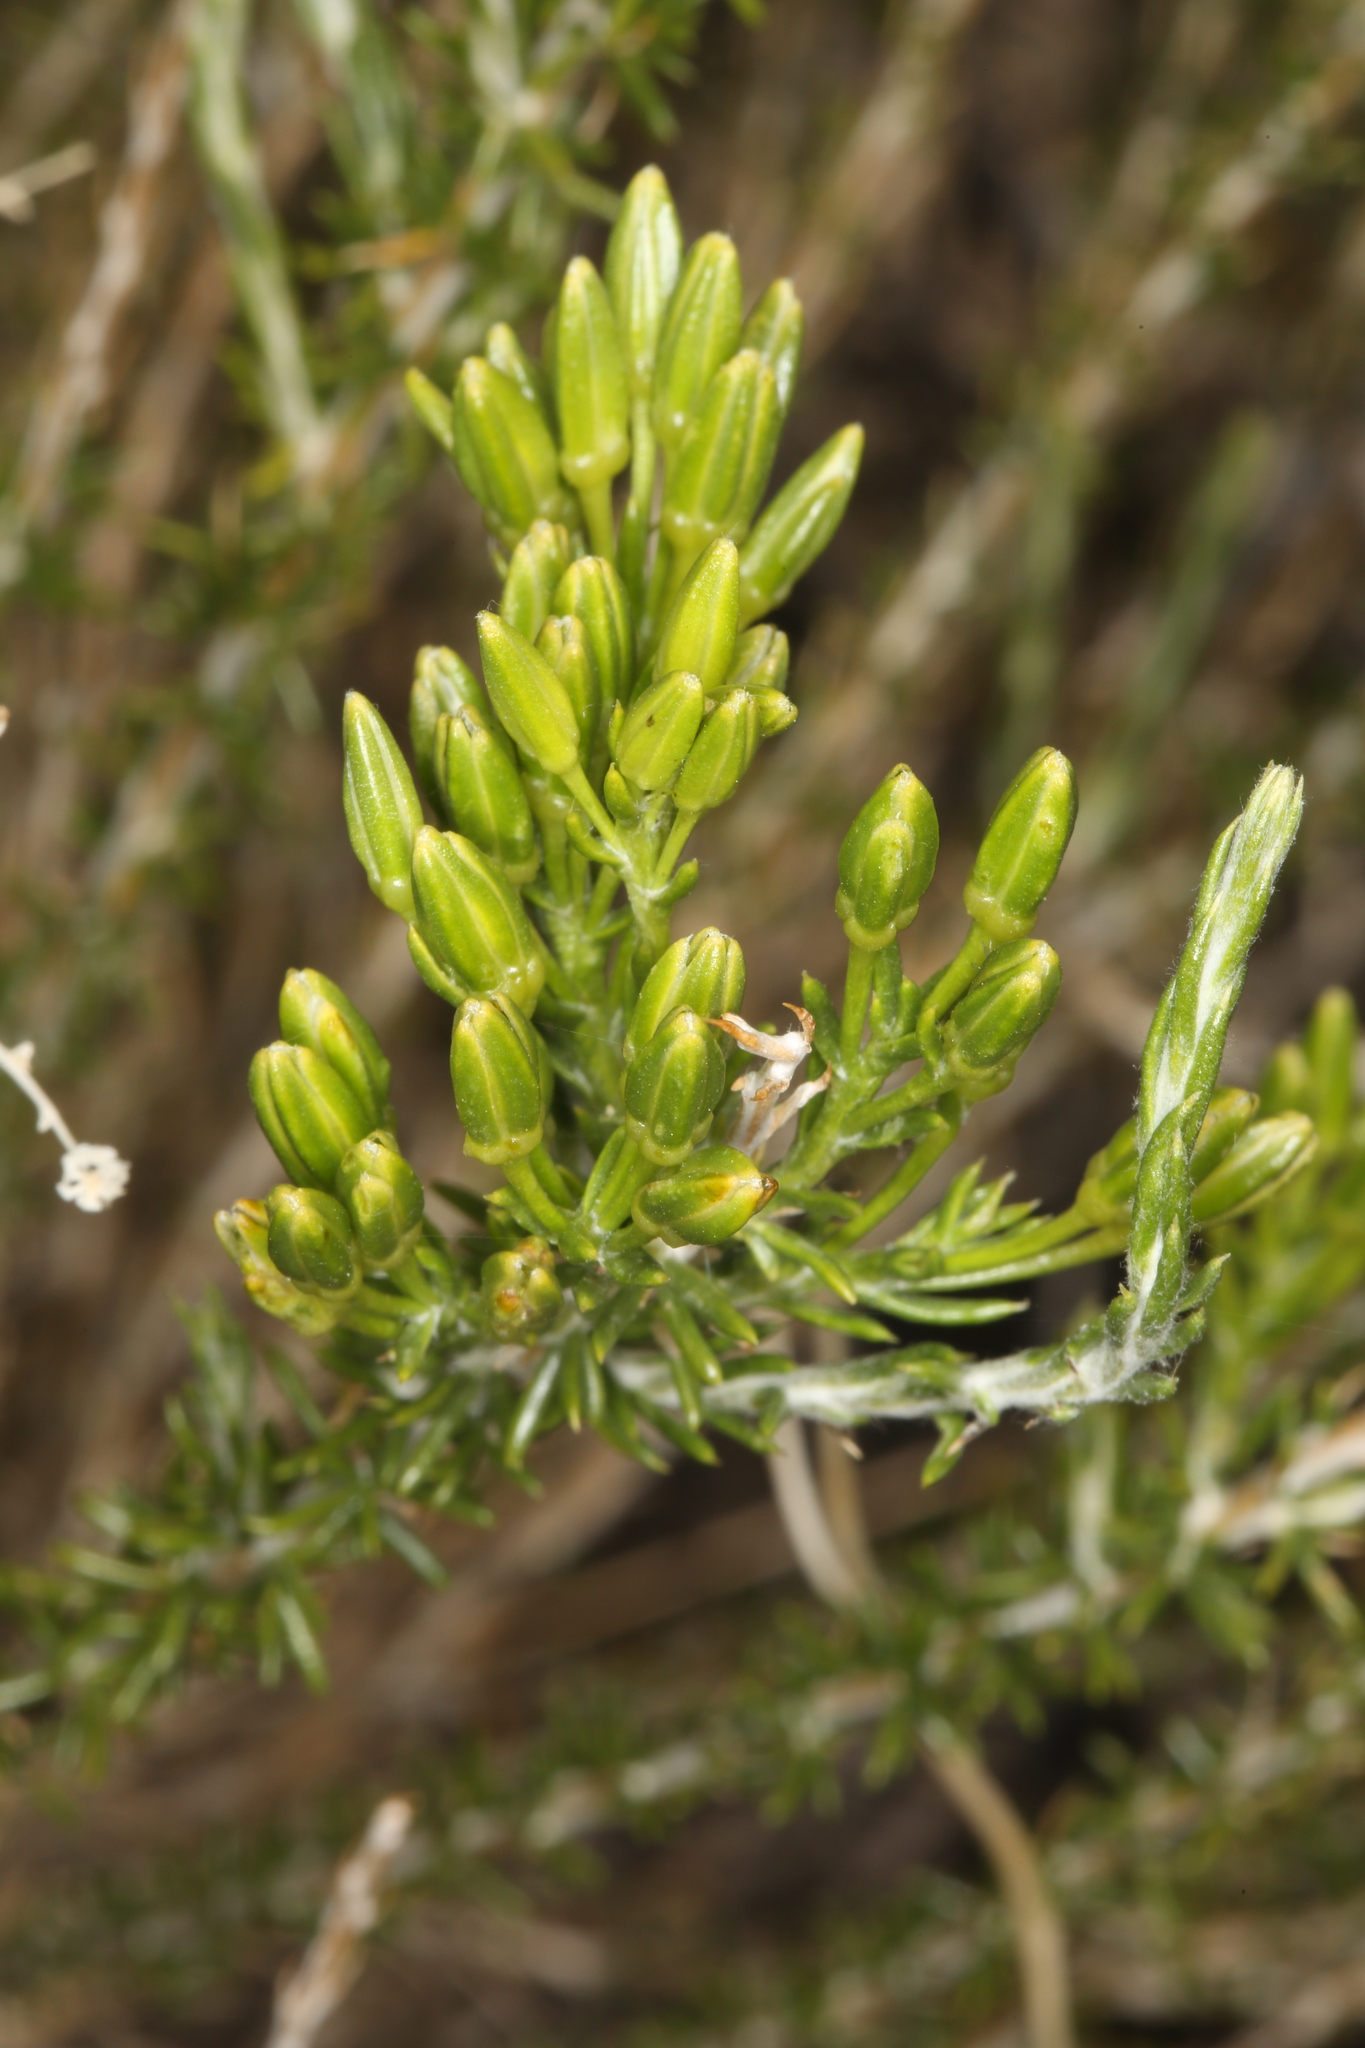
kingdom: Plantae
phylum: Tracheophyta
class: Magnoliopsida
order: Asterales
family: Asteraceae
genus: Tetradymia
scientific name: Tetradymia glabrata
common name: Smooth tetradymia
